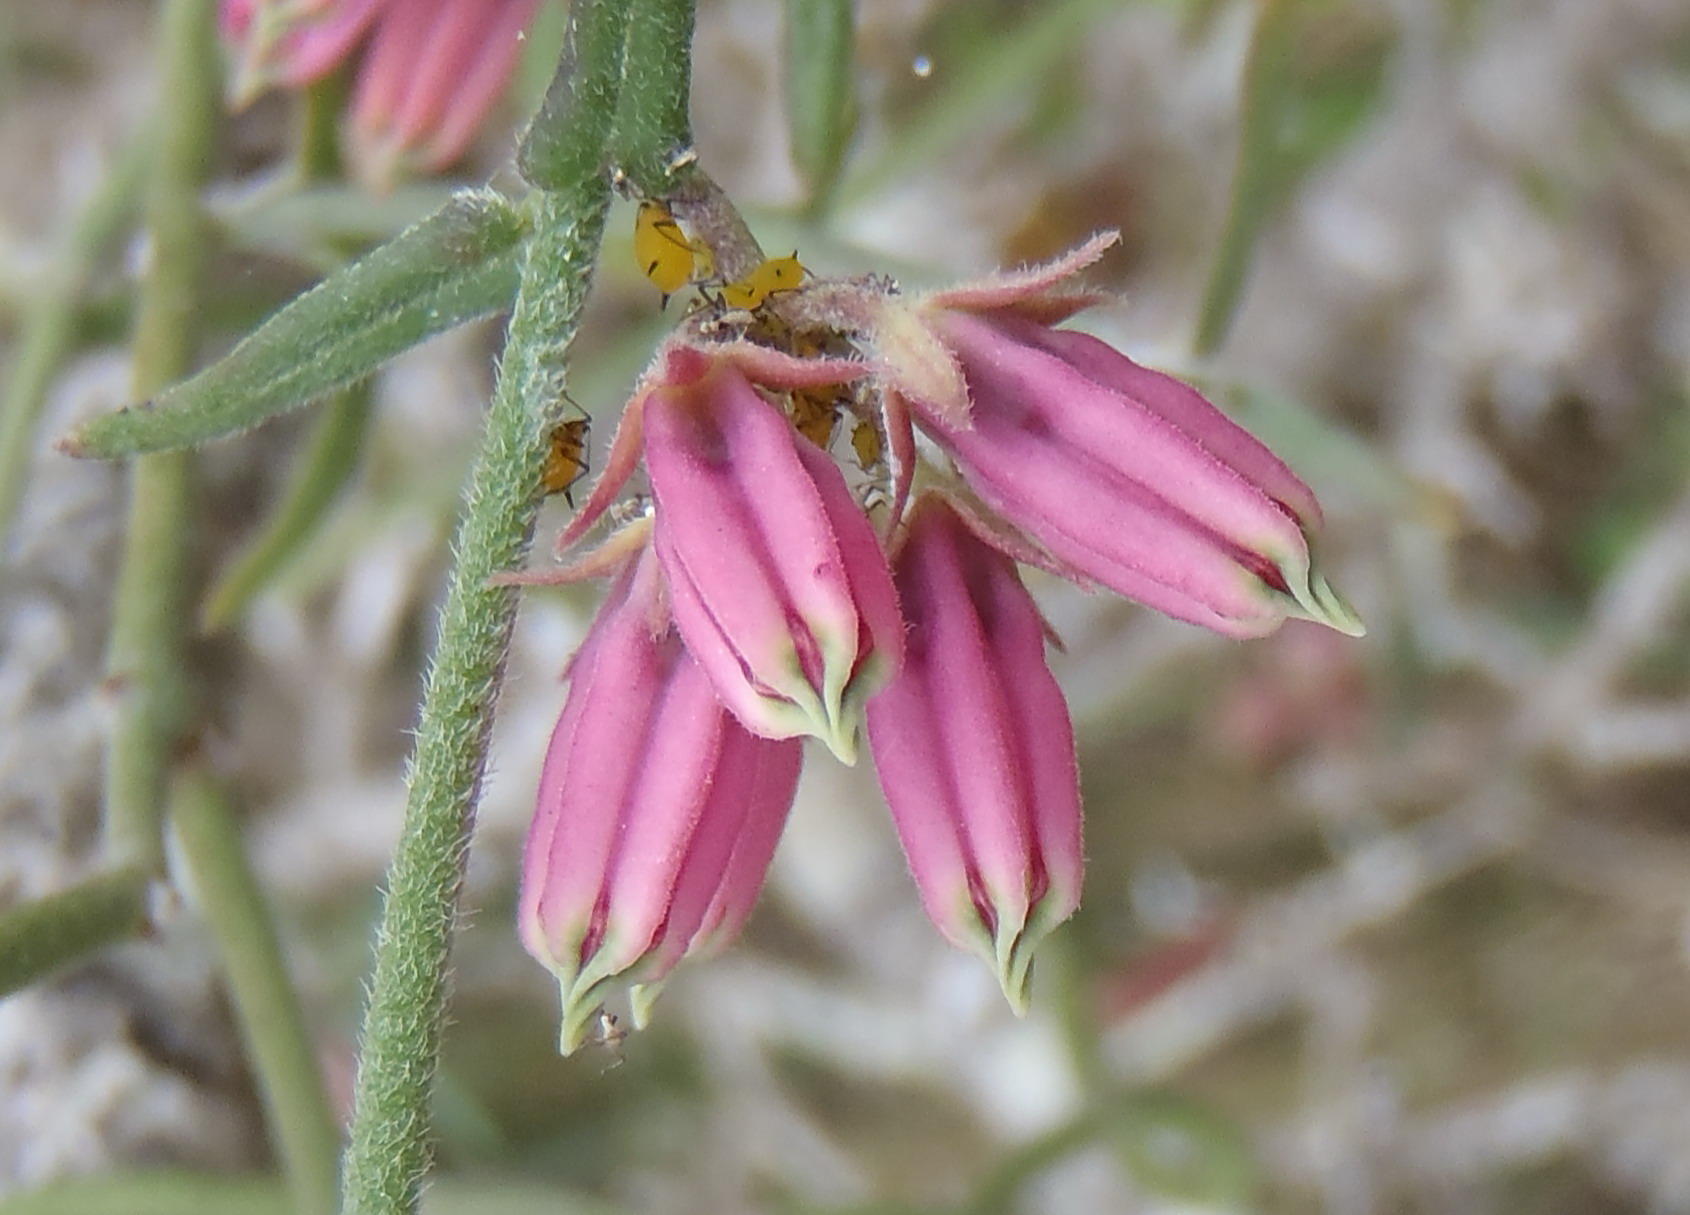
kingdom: Plantae
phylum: Tracheophyta
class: Magnoliopsida
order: Gentianales
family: Apocynaceae
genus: Microloma
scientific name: Microloma sagittatum
